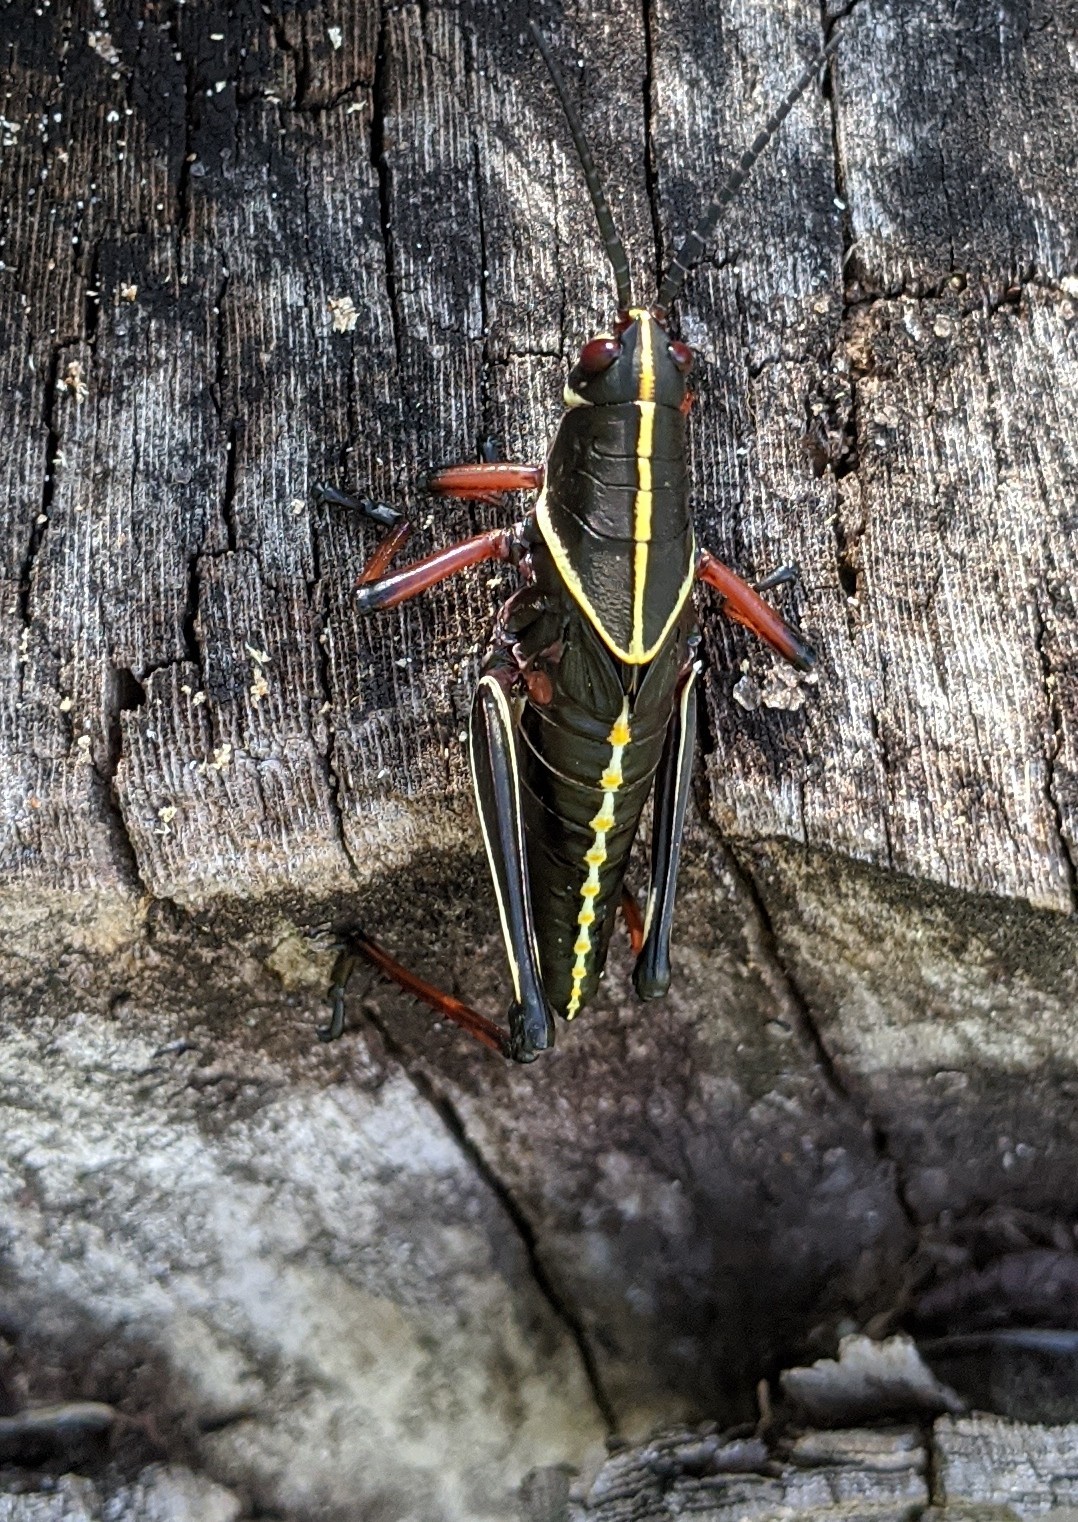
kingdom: Animalia
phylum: Arthropoda
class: Insecta
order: Orthoptera
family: Romaleidae
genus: Romalea
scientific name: Romalea microptera
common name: Eastern lubber grasshopper
